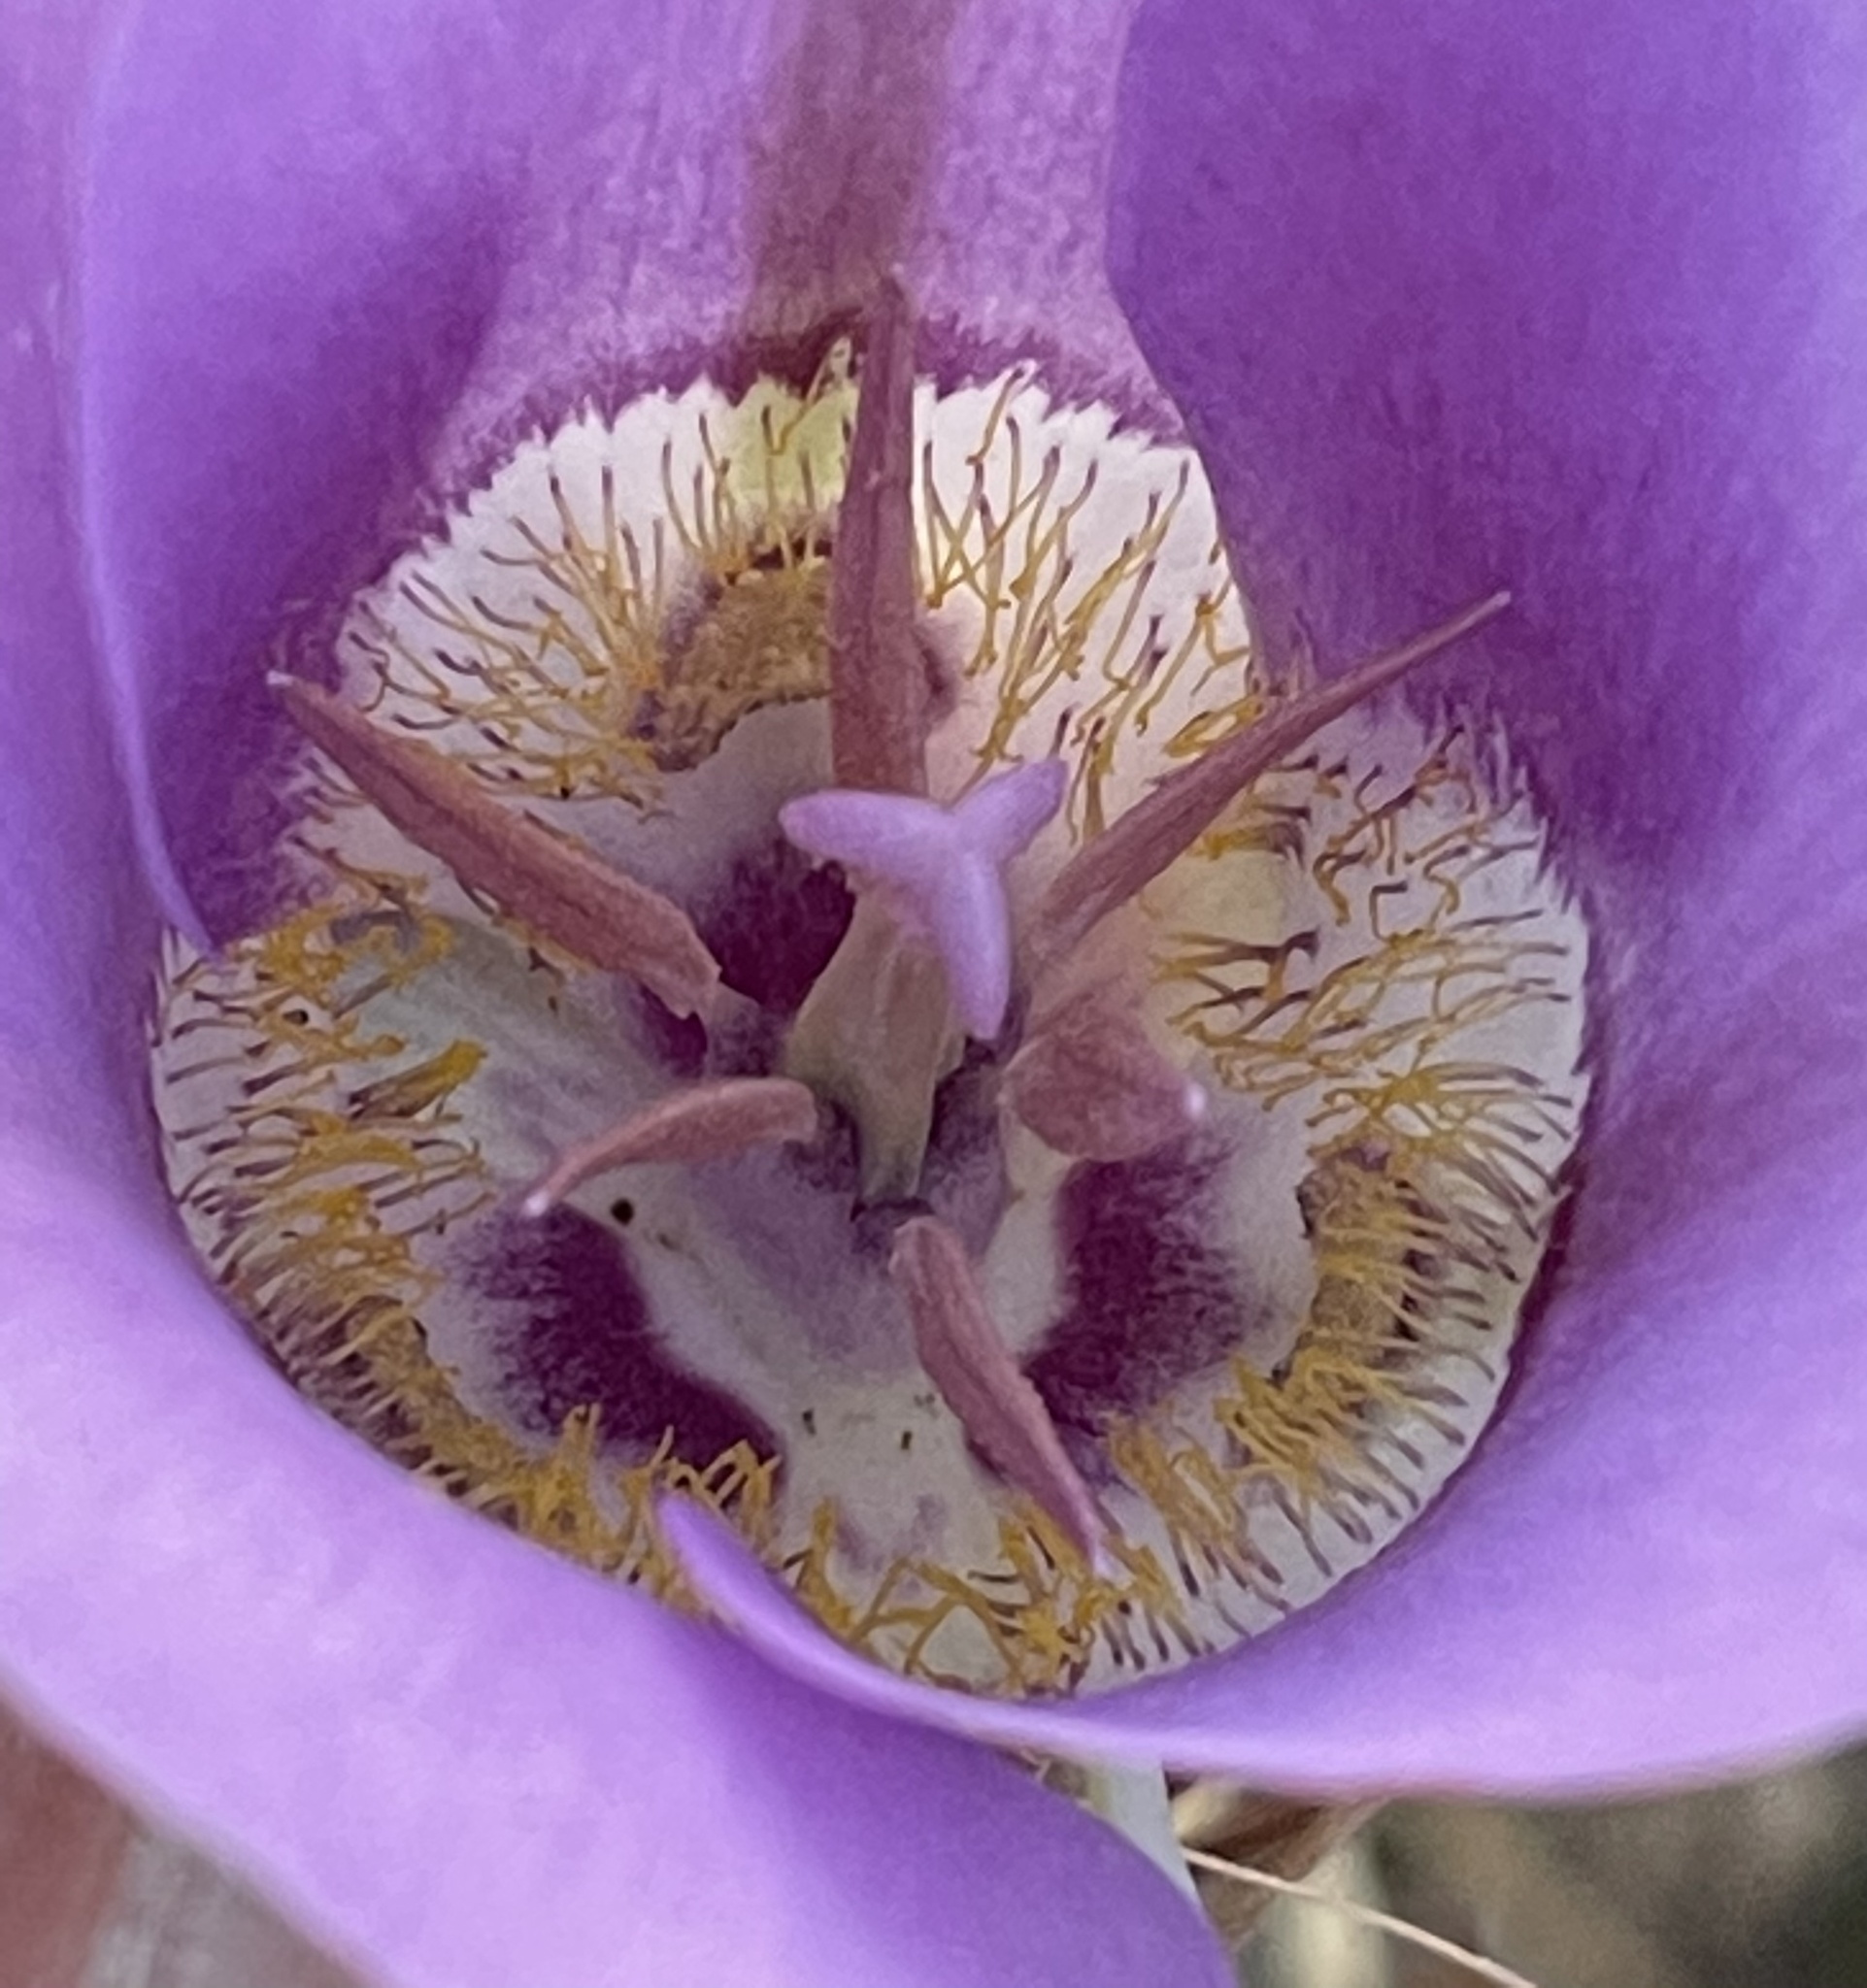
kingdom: Plantae
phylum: Tracheophyta
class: Liliopsida
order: Liliales
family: Liliaceae
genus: Calochortus
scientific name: Calochortus macrocarpus
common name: Green-band mariposa lily
